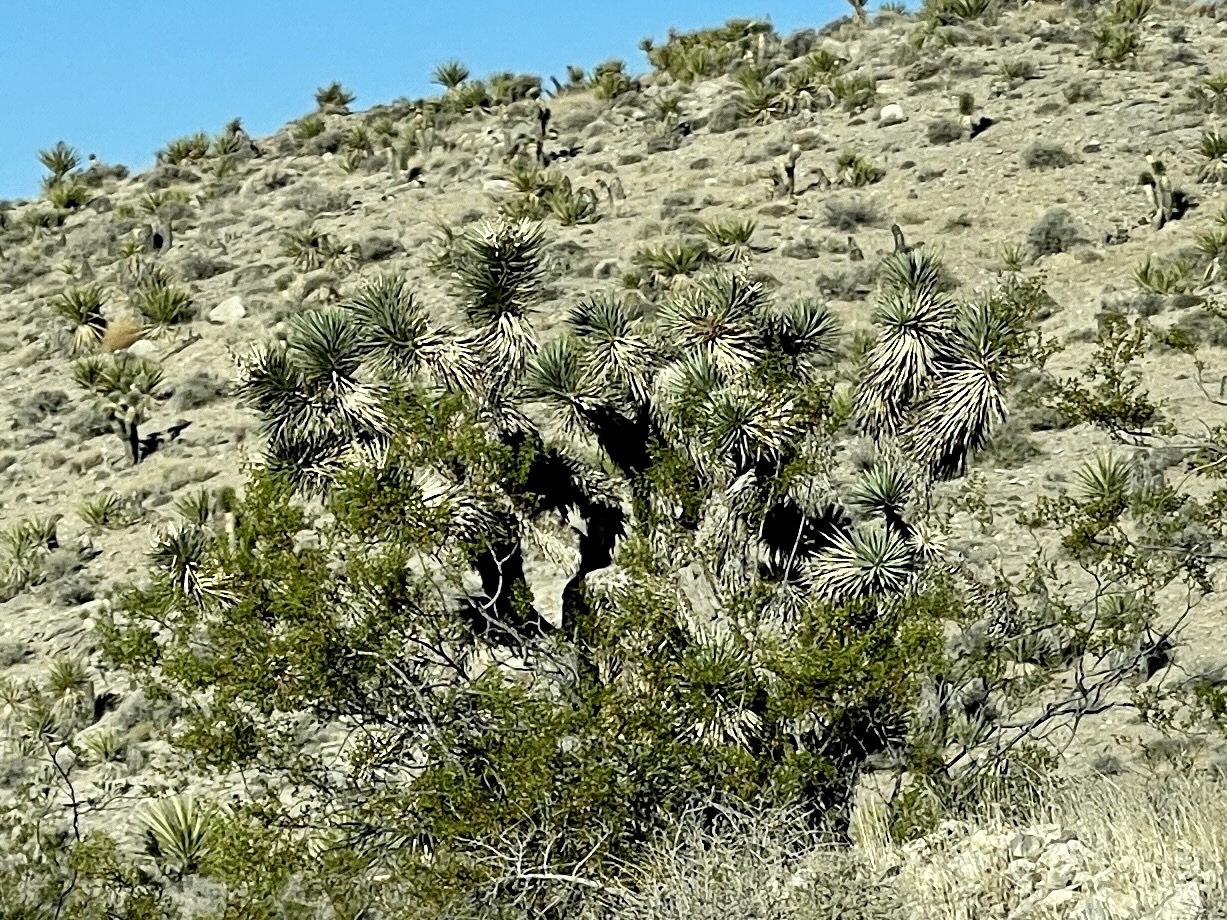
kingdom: Plantae
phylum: Tracheophyta
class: Liliopsida
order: Asparagales
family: Asparagaceae
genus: Yucca
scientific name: Yucca brevifolia
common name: Joshua tree
